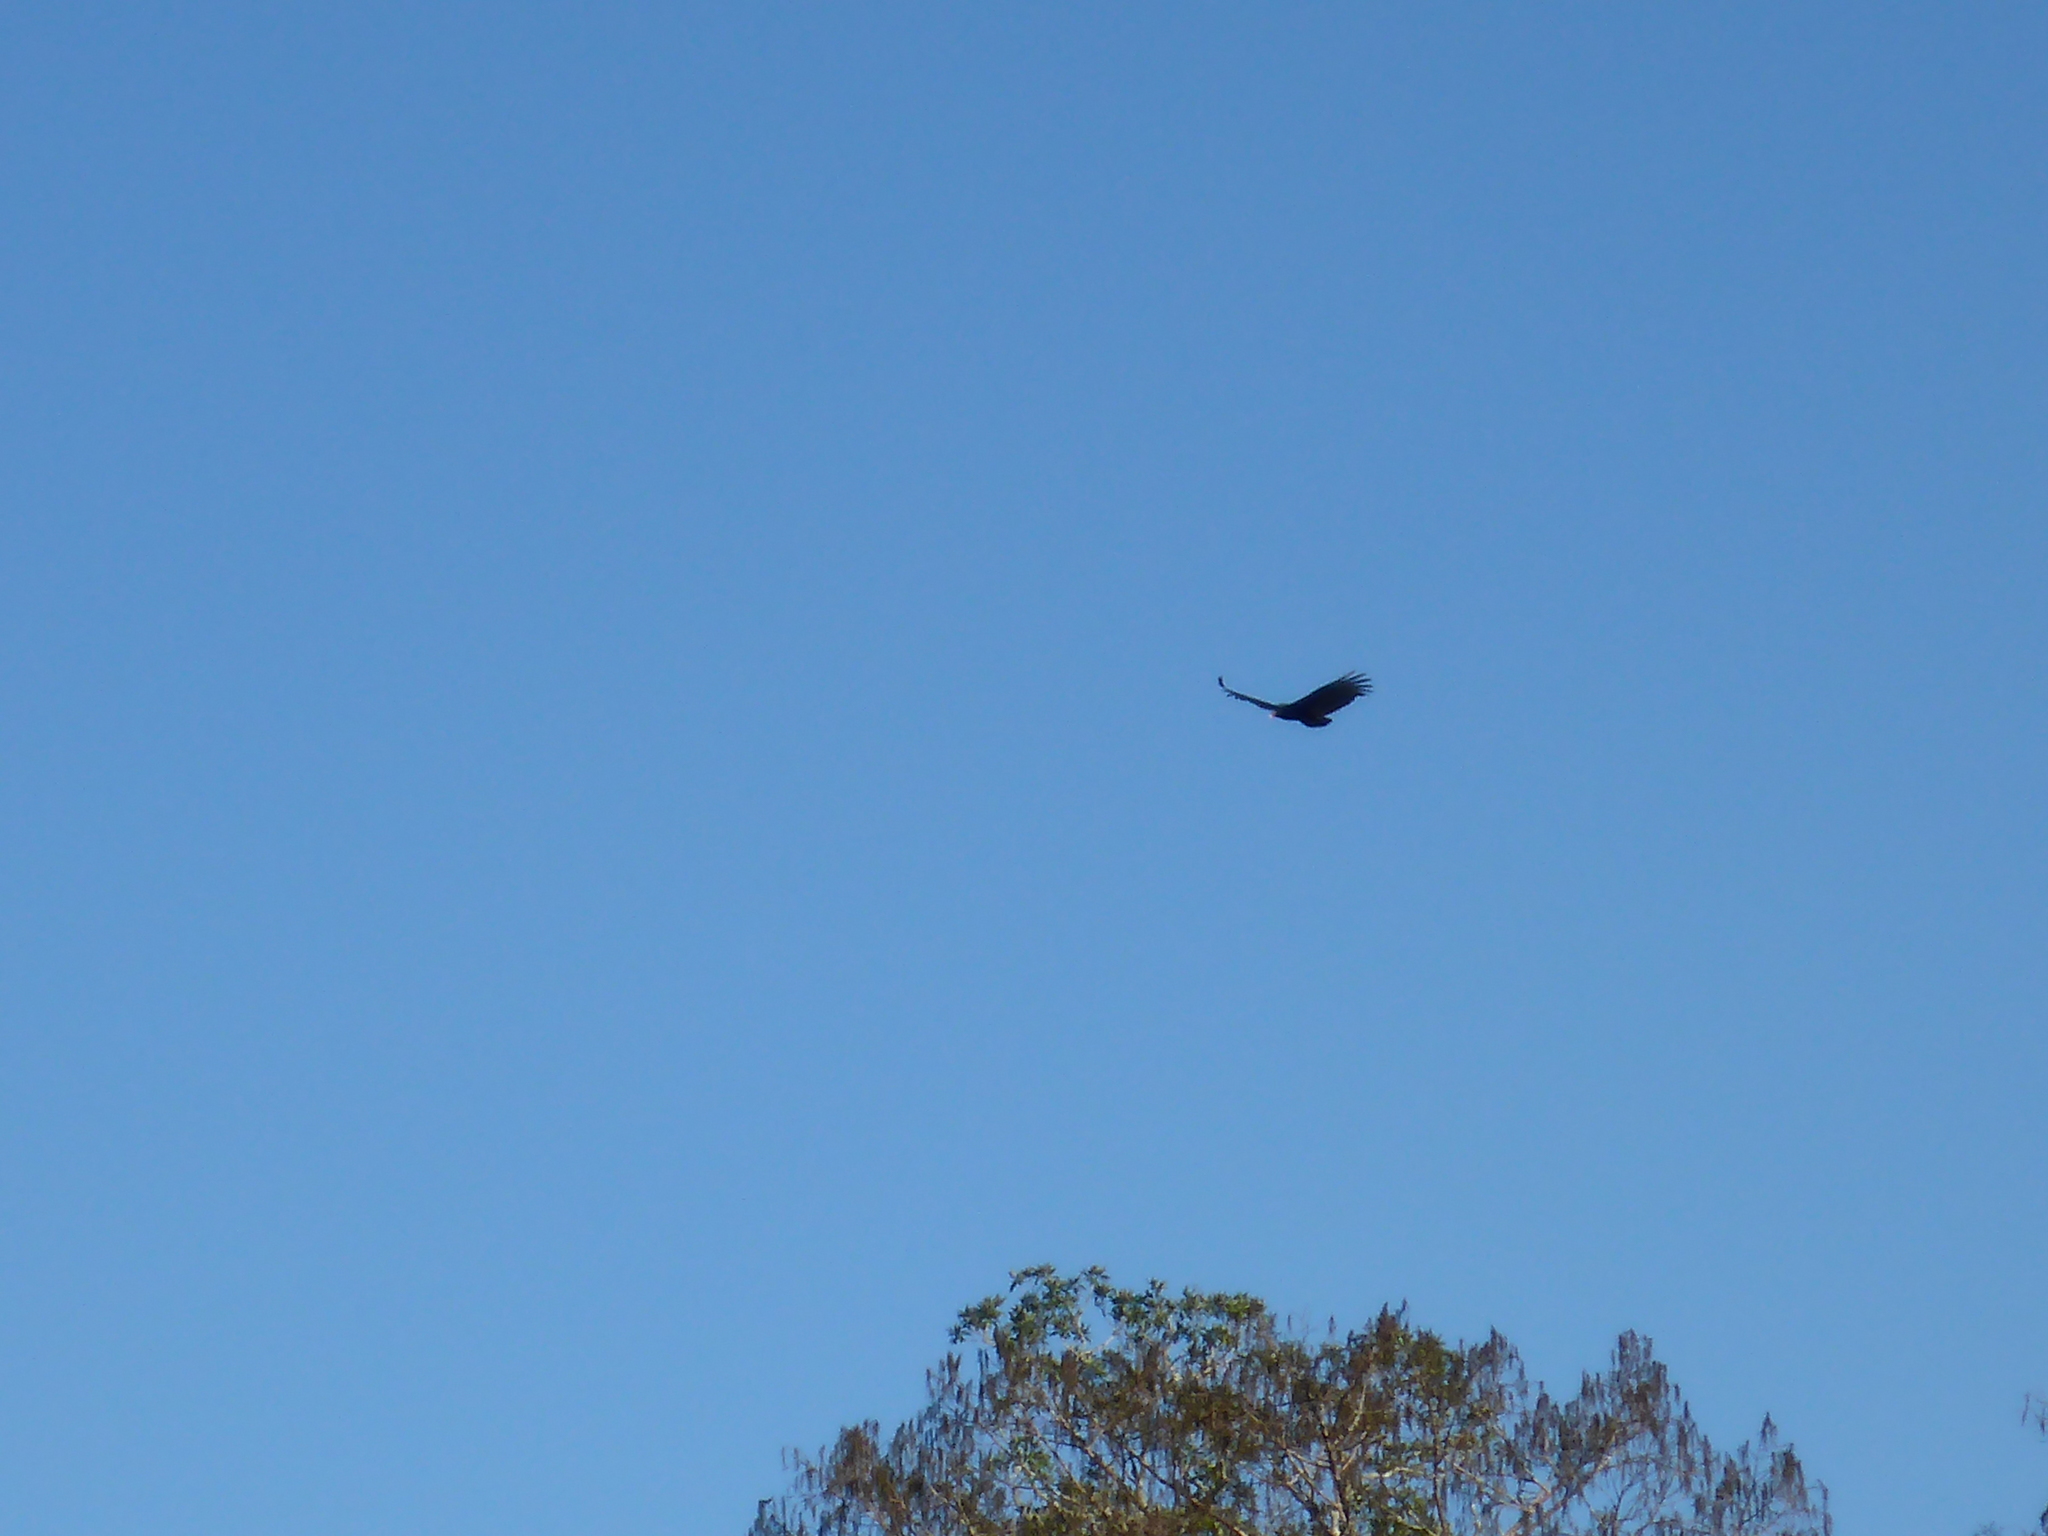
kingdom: Animalia
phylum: Chordata
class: Aves
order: Accipitriformes
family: Cathartidae
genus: Cathartes
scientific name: Cathartes aura
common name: Turkey vulture
